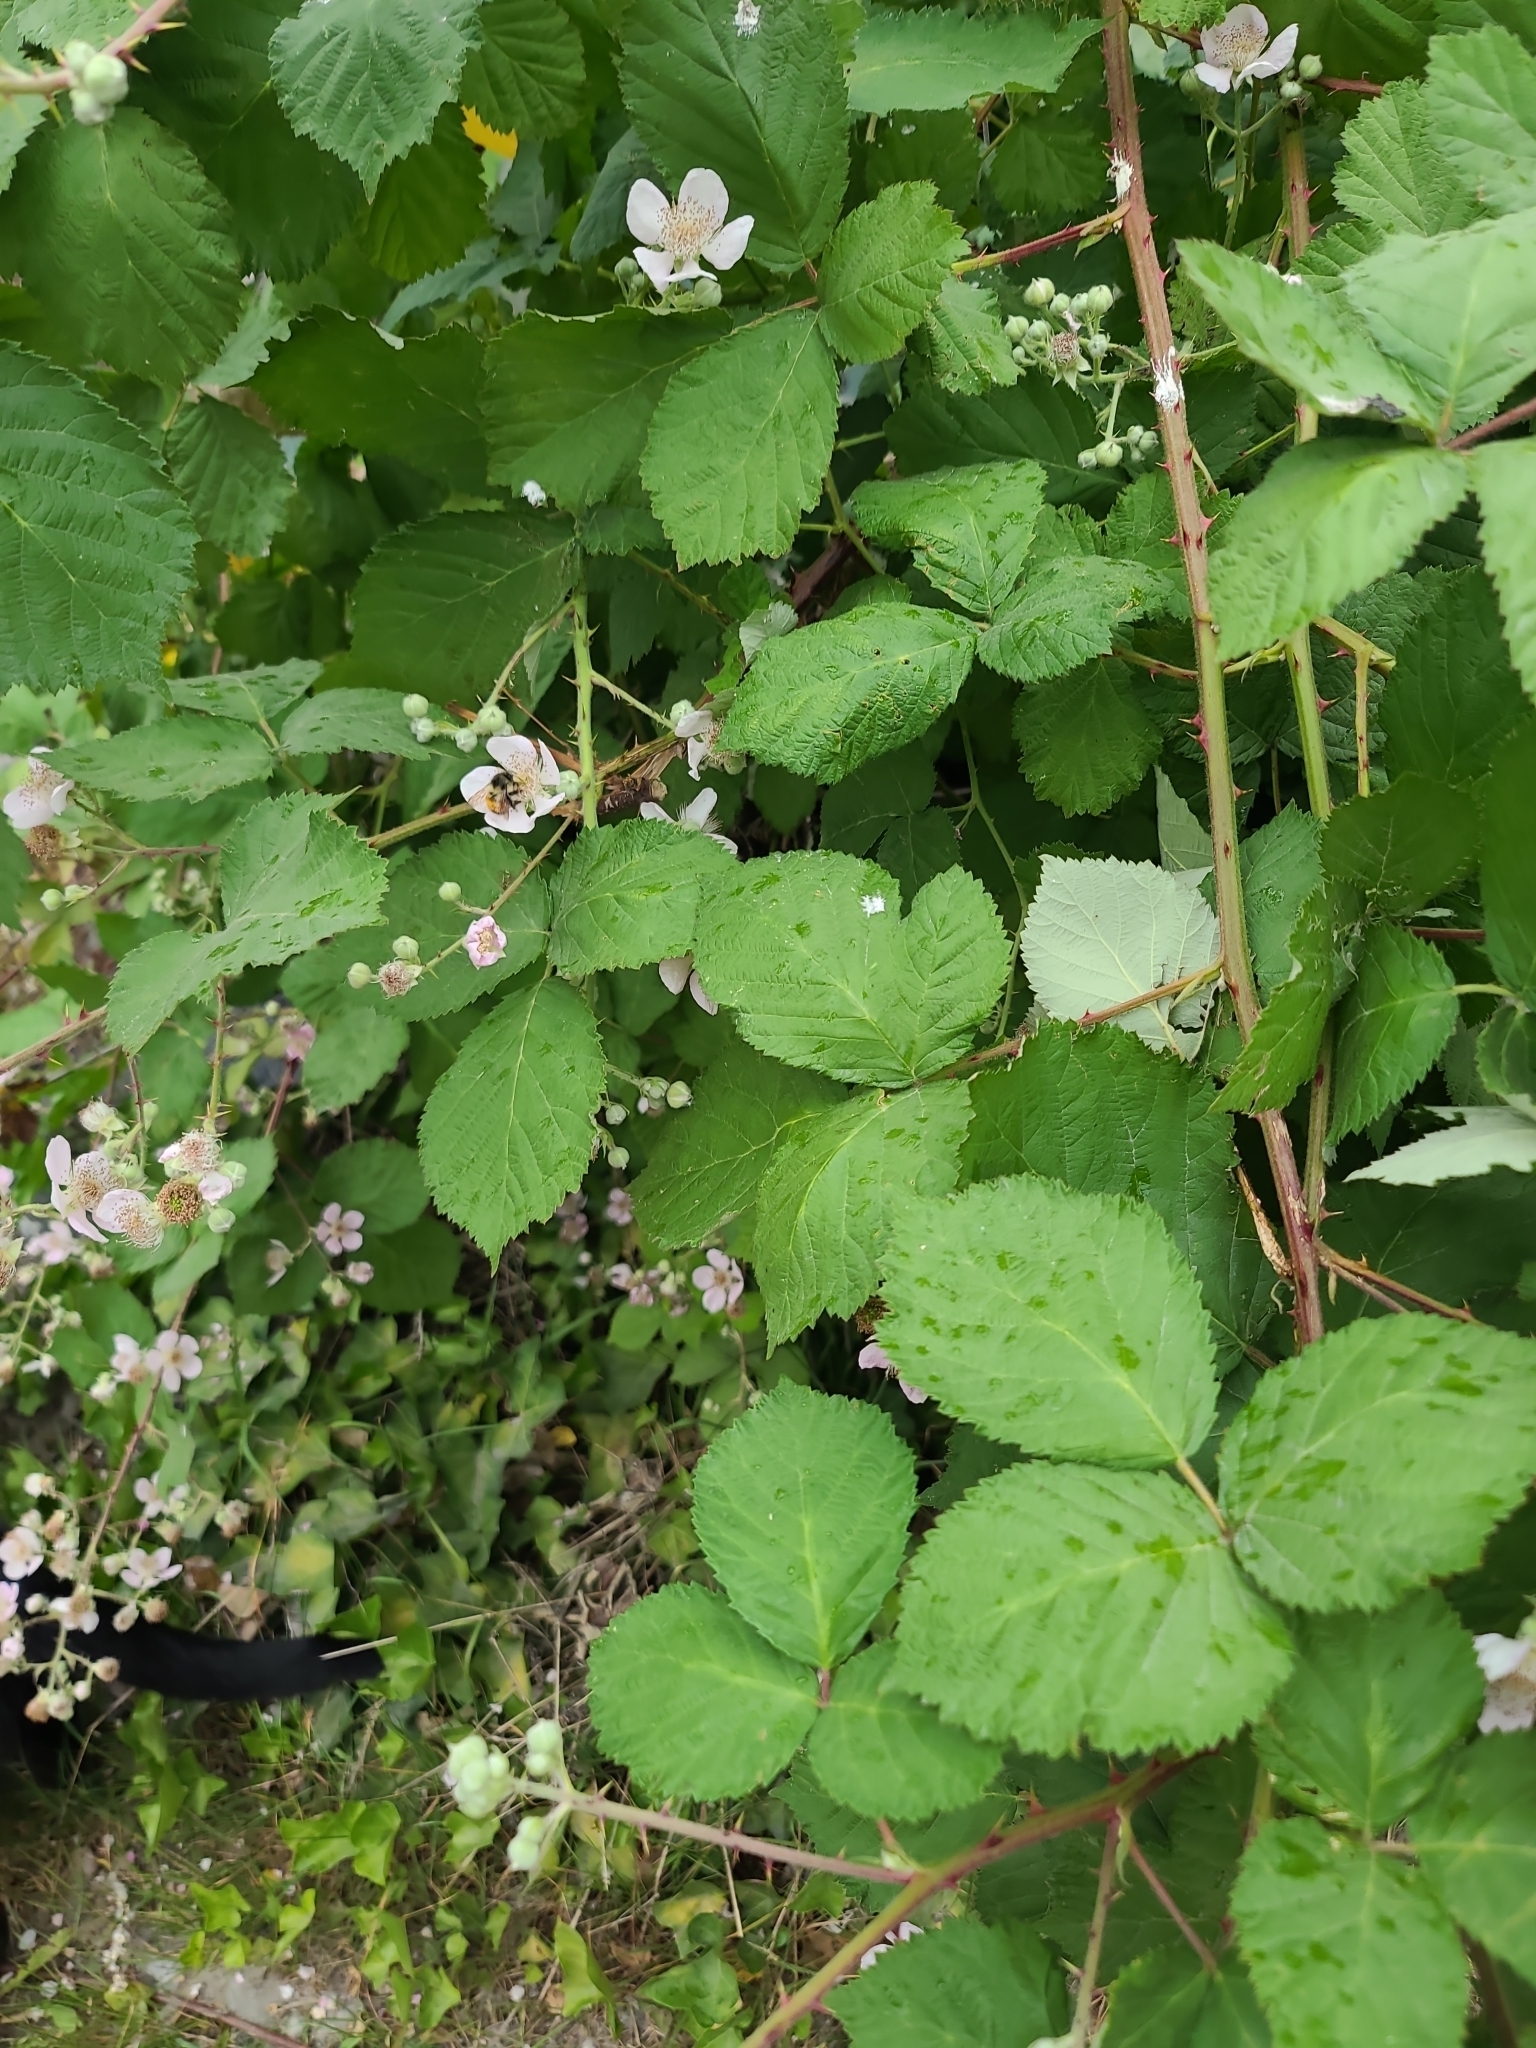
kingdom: Animalia
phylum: Arthropoda
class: Insecta
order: Hymenoptera
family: Apidae
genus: Bombus
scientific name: Bombus melanopygus
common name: Black tail bumble bee
